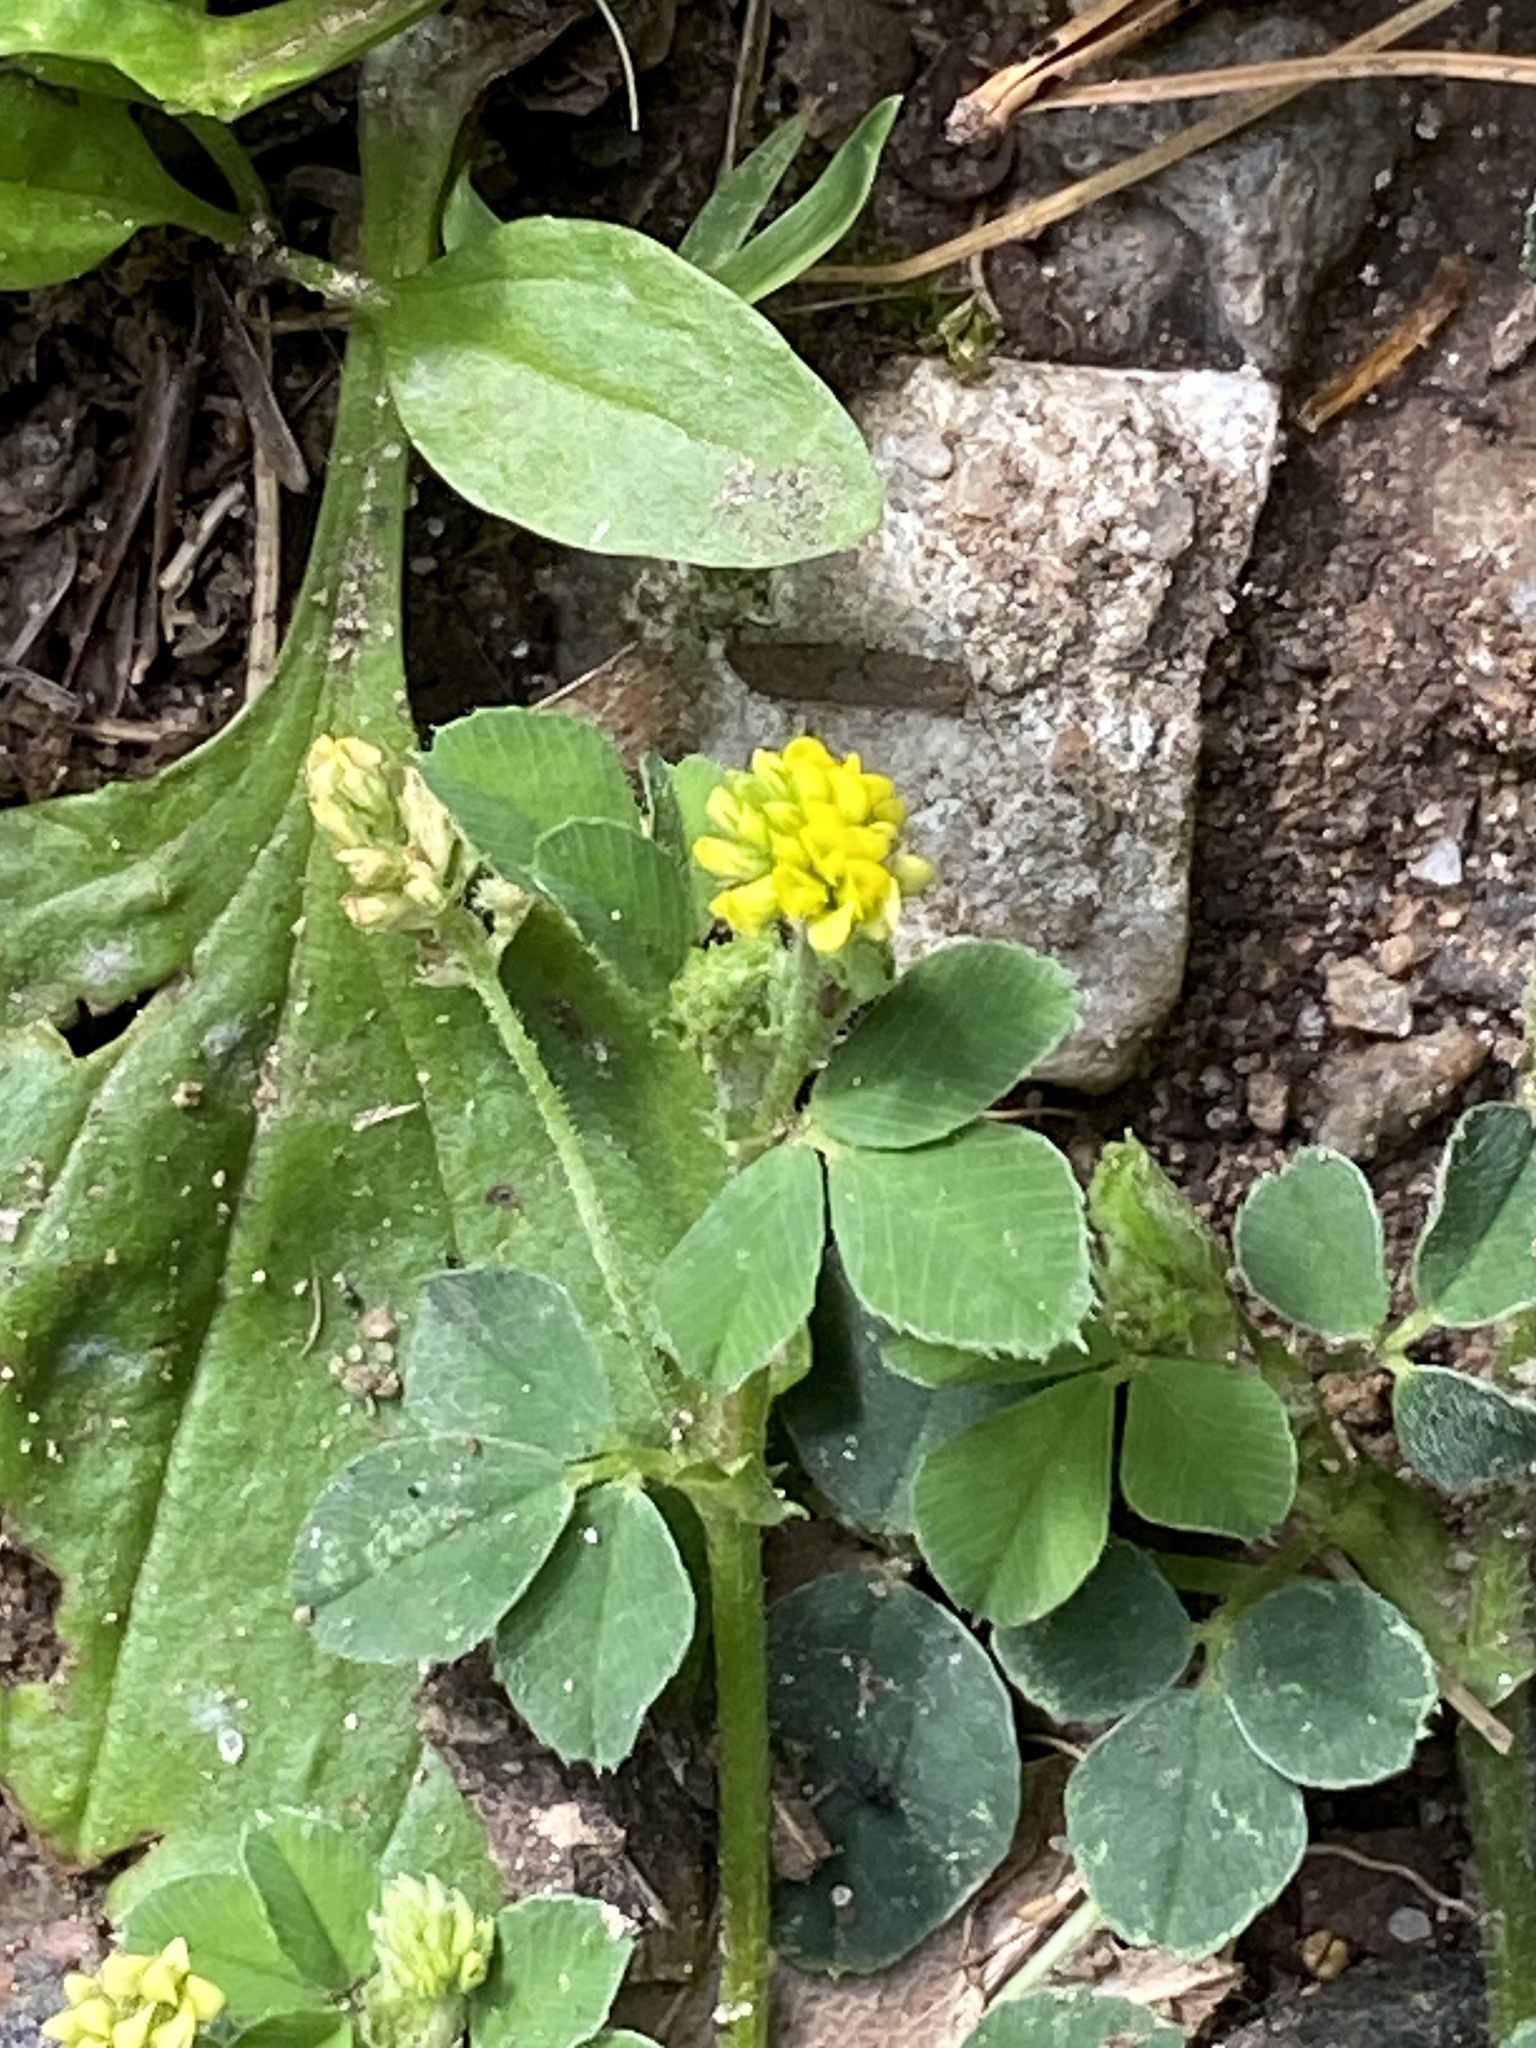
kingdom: Plantae
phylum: Tracheophyta
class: Magnoliopsida
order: Fabales
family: Fabaceae
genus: Medicago
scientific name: Medicago lupulina
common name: Black medick
